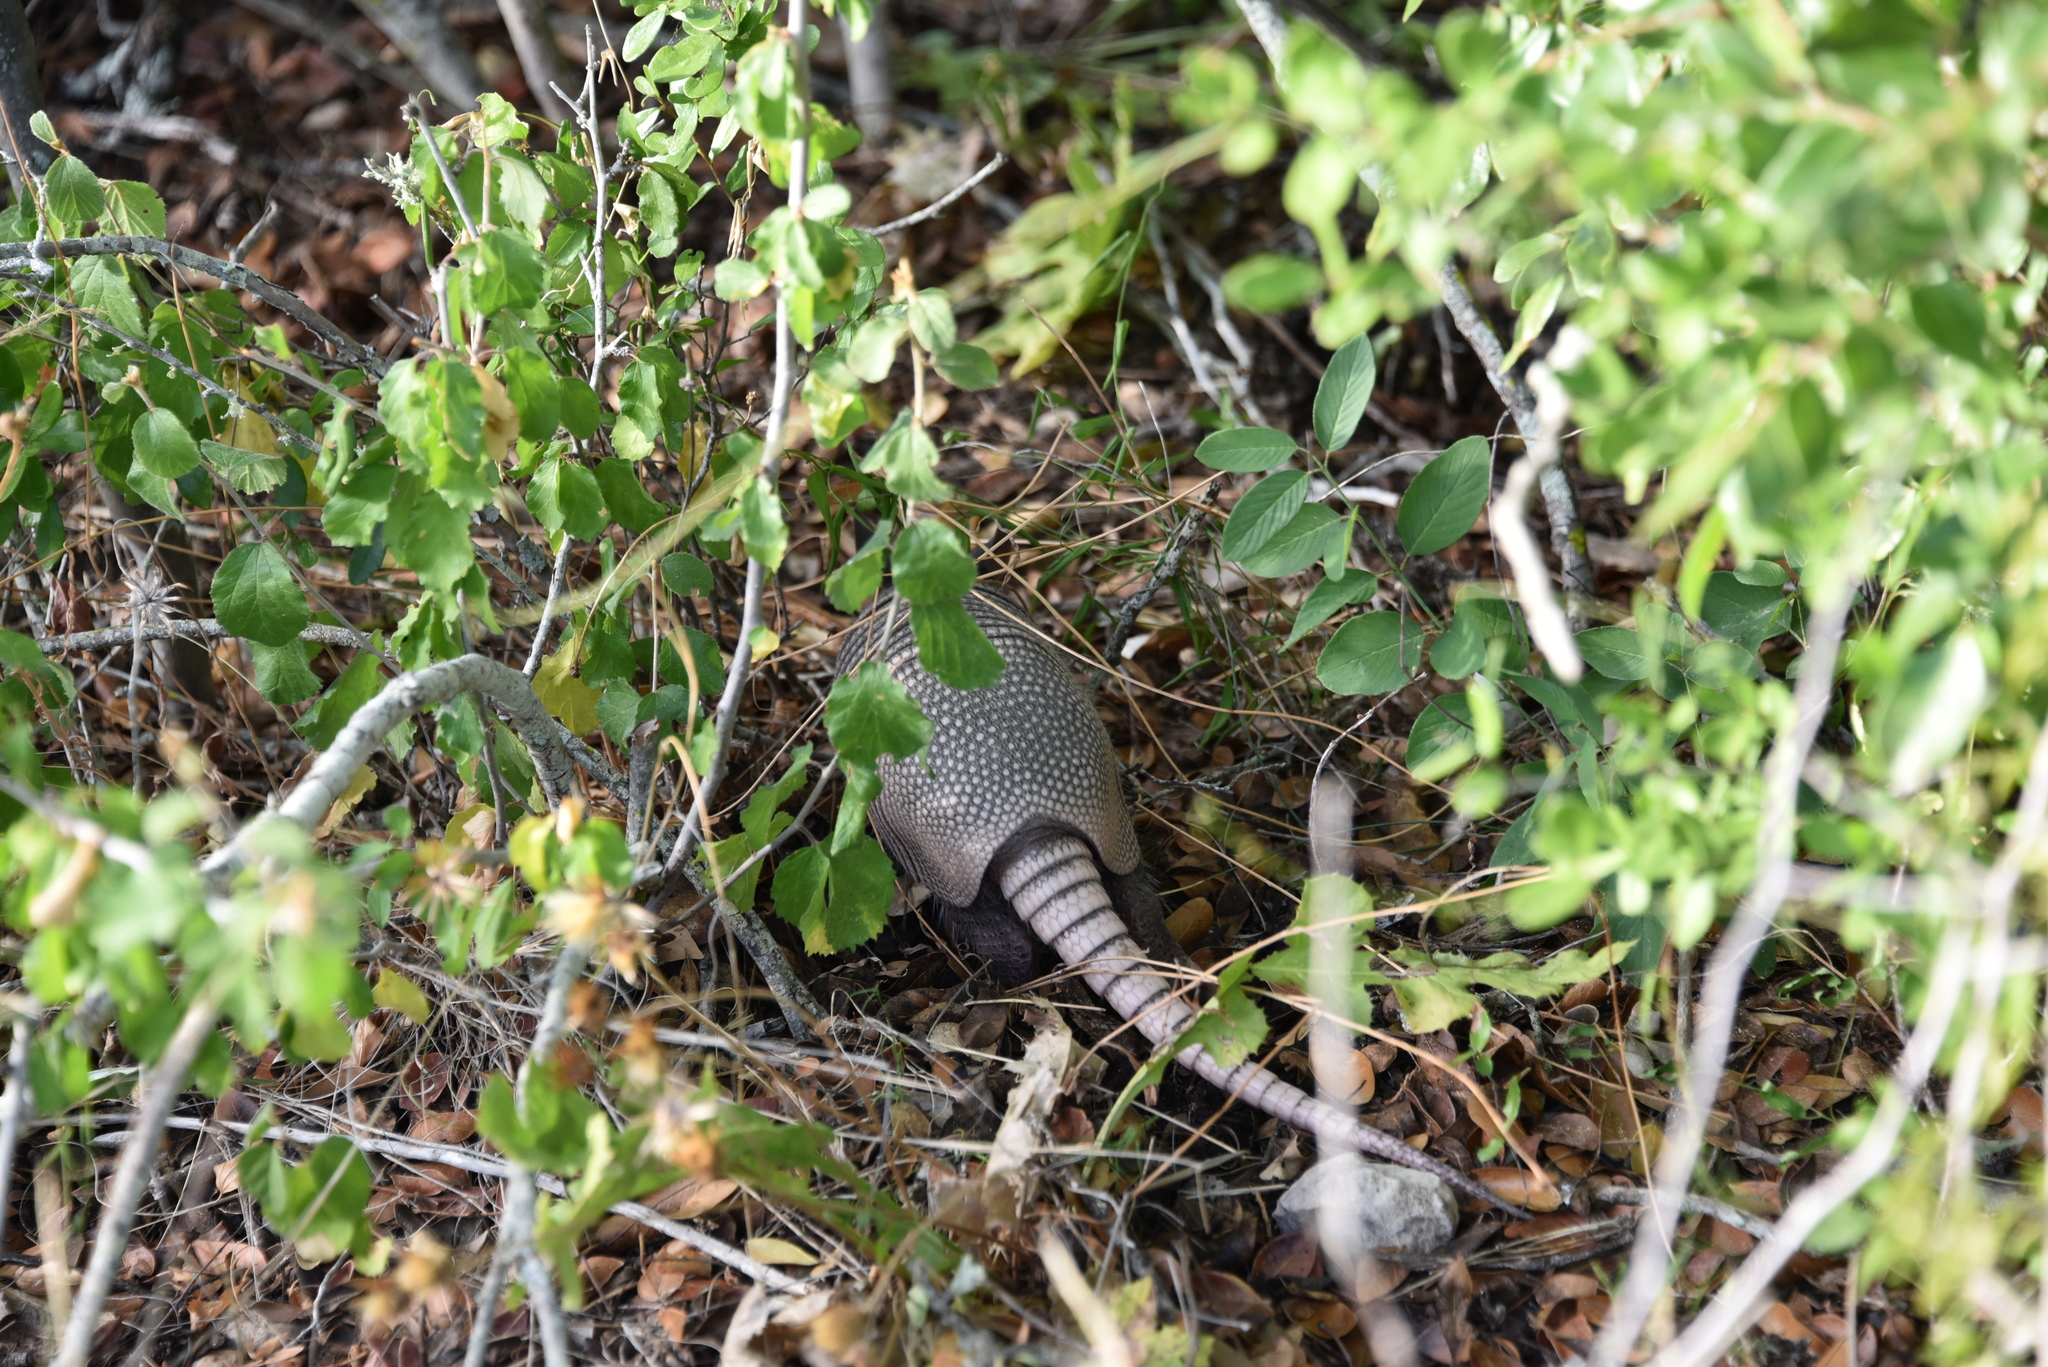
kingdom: Animalia
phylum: Chordata
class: Mammalia
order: Cingulata
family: Dasypodidae
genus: Dasypus
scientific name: Dasypus novemcinctus
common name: Nine-banded armadillo
